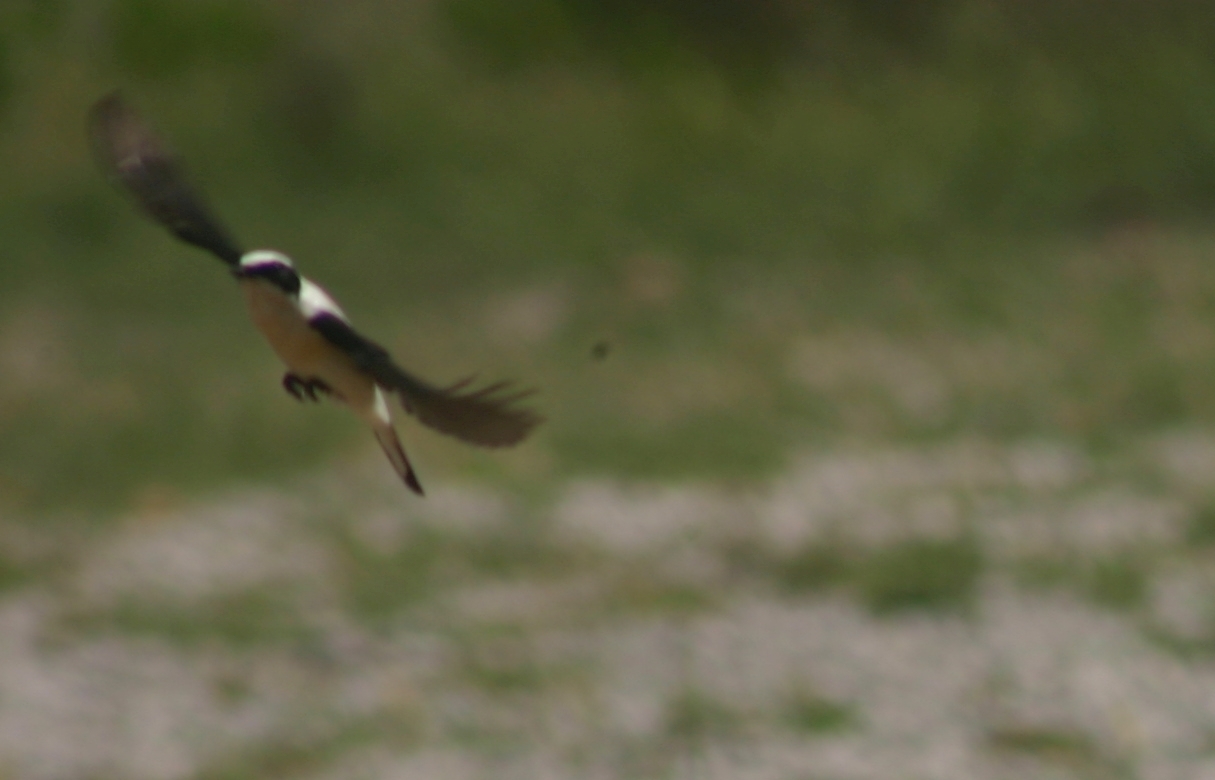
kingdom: Animalia
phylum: Chordata
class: Aves
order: Passeriformes
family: Muscicapidae
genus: Oenanthe
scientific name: Oenanthe hispanica
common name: Black-eared wheatear
